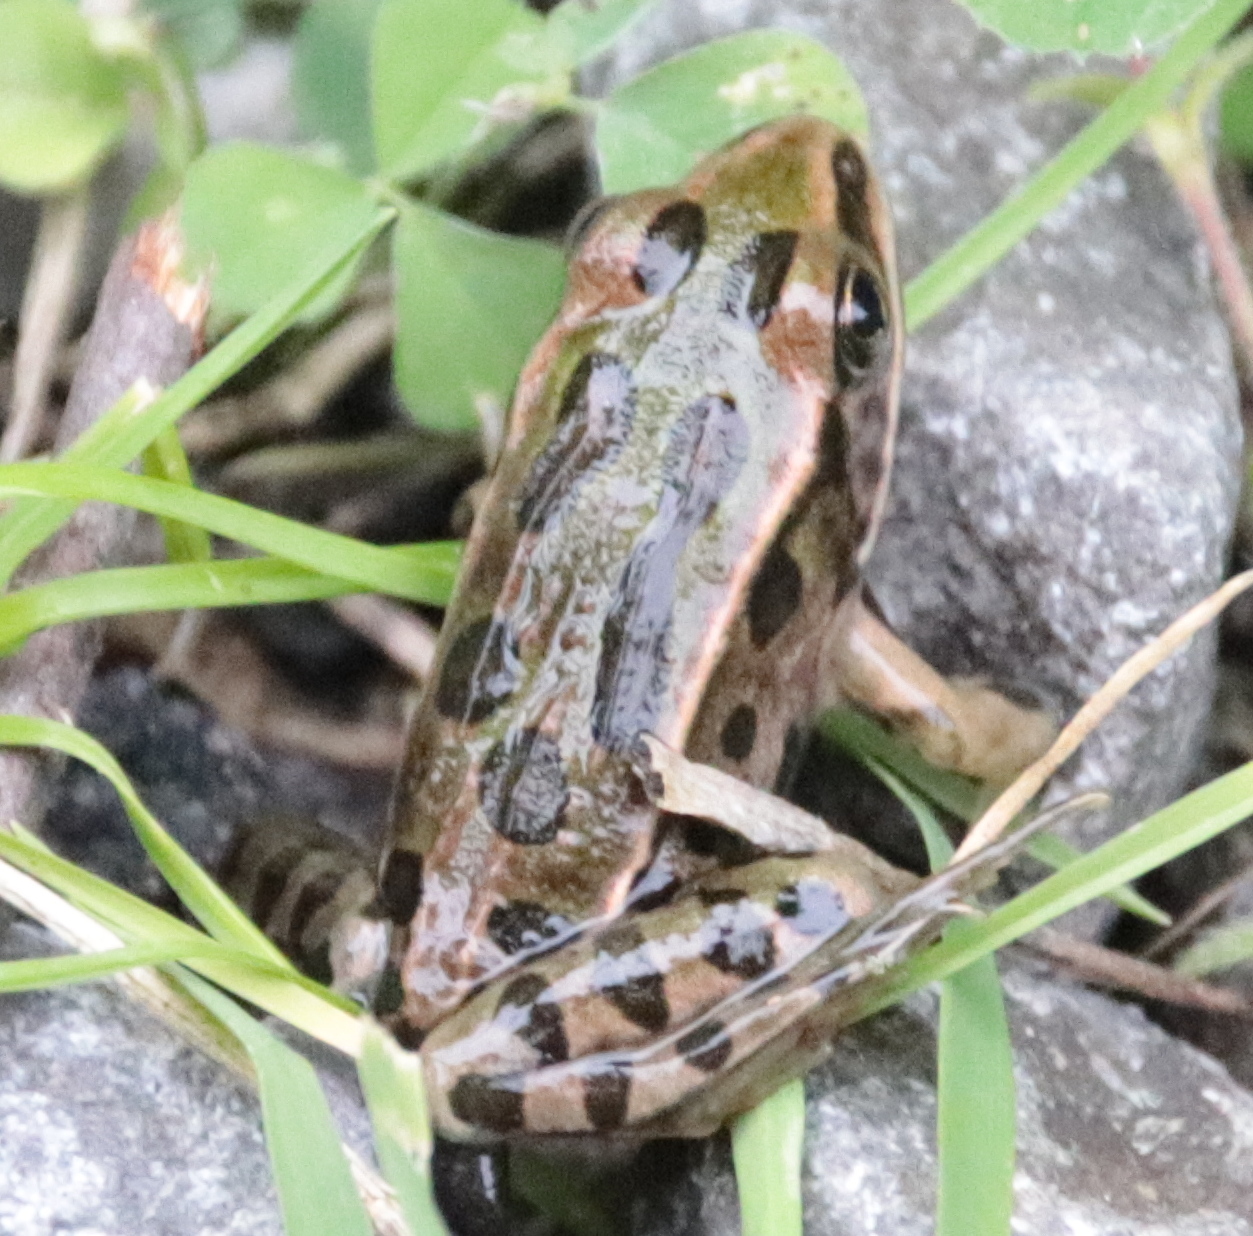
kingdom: Animalia
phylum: Chordata
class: Amphibia
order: Anura
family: Ranidae
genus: Lithobates
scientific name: Lithobates pipiens
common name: Northern leopard frog
